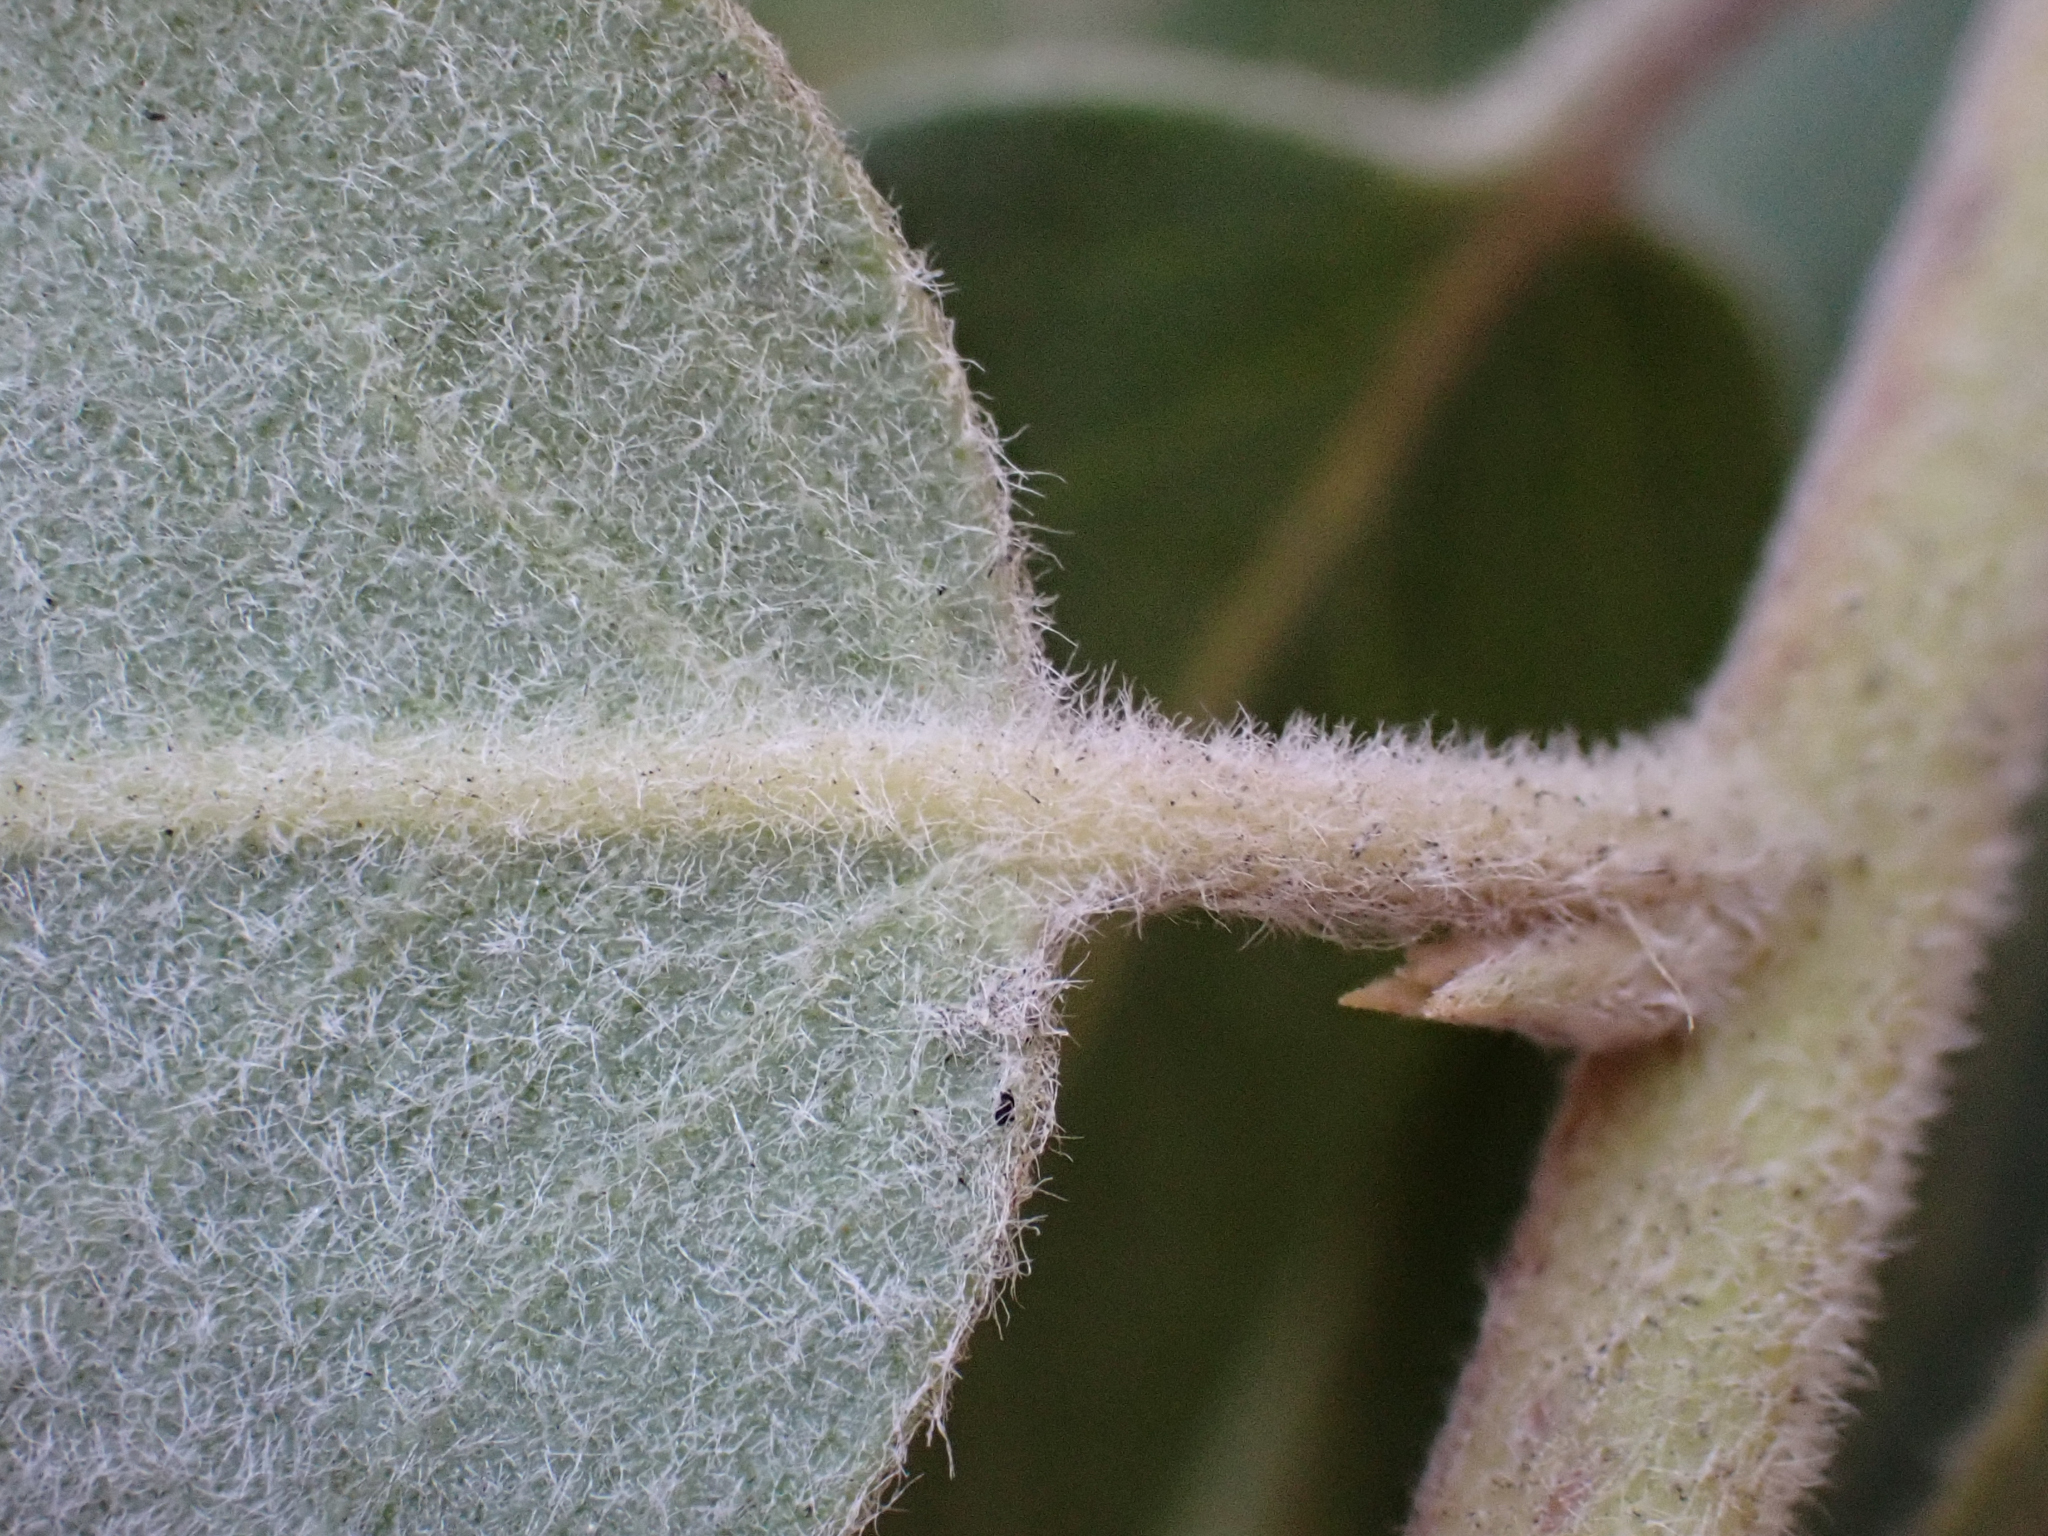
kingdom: Plantae
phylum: Tracheophyta
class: Magnoliopsida
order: Ericales
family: Ericaceae
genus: Arctostaphylos
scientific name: Arctostaphylos crustacea
